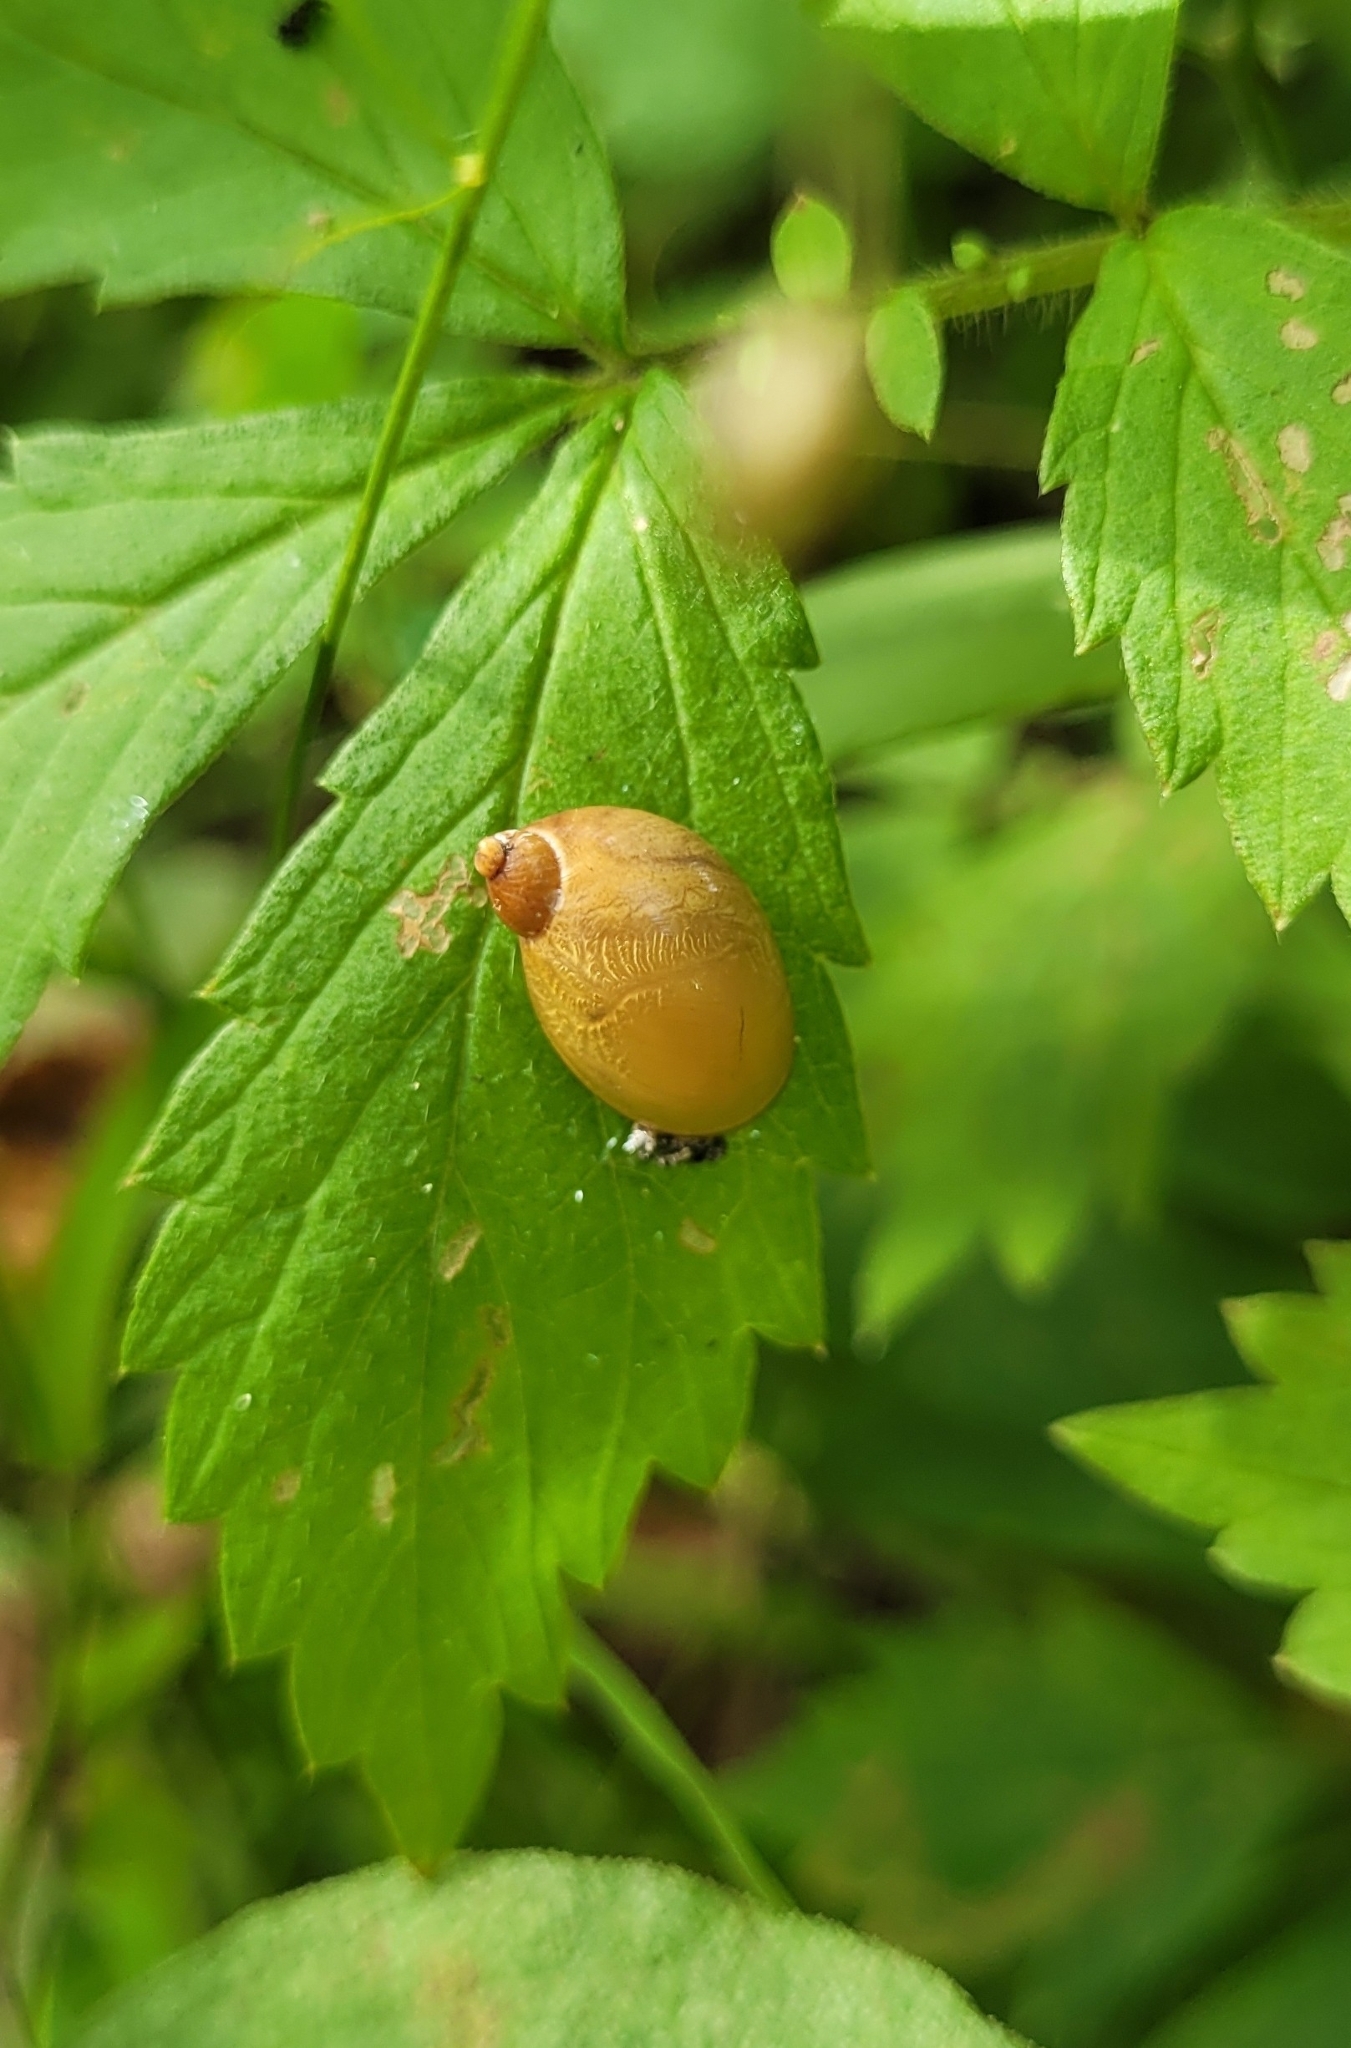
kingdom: Animalia
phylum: Mollusca
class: Gastropoda
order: Stylommatophora
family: Succineidae
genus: Succinea
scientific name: Succinea lauta
